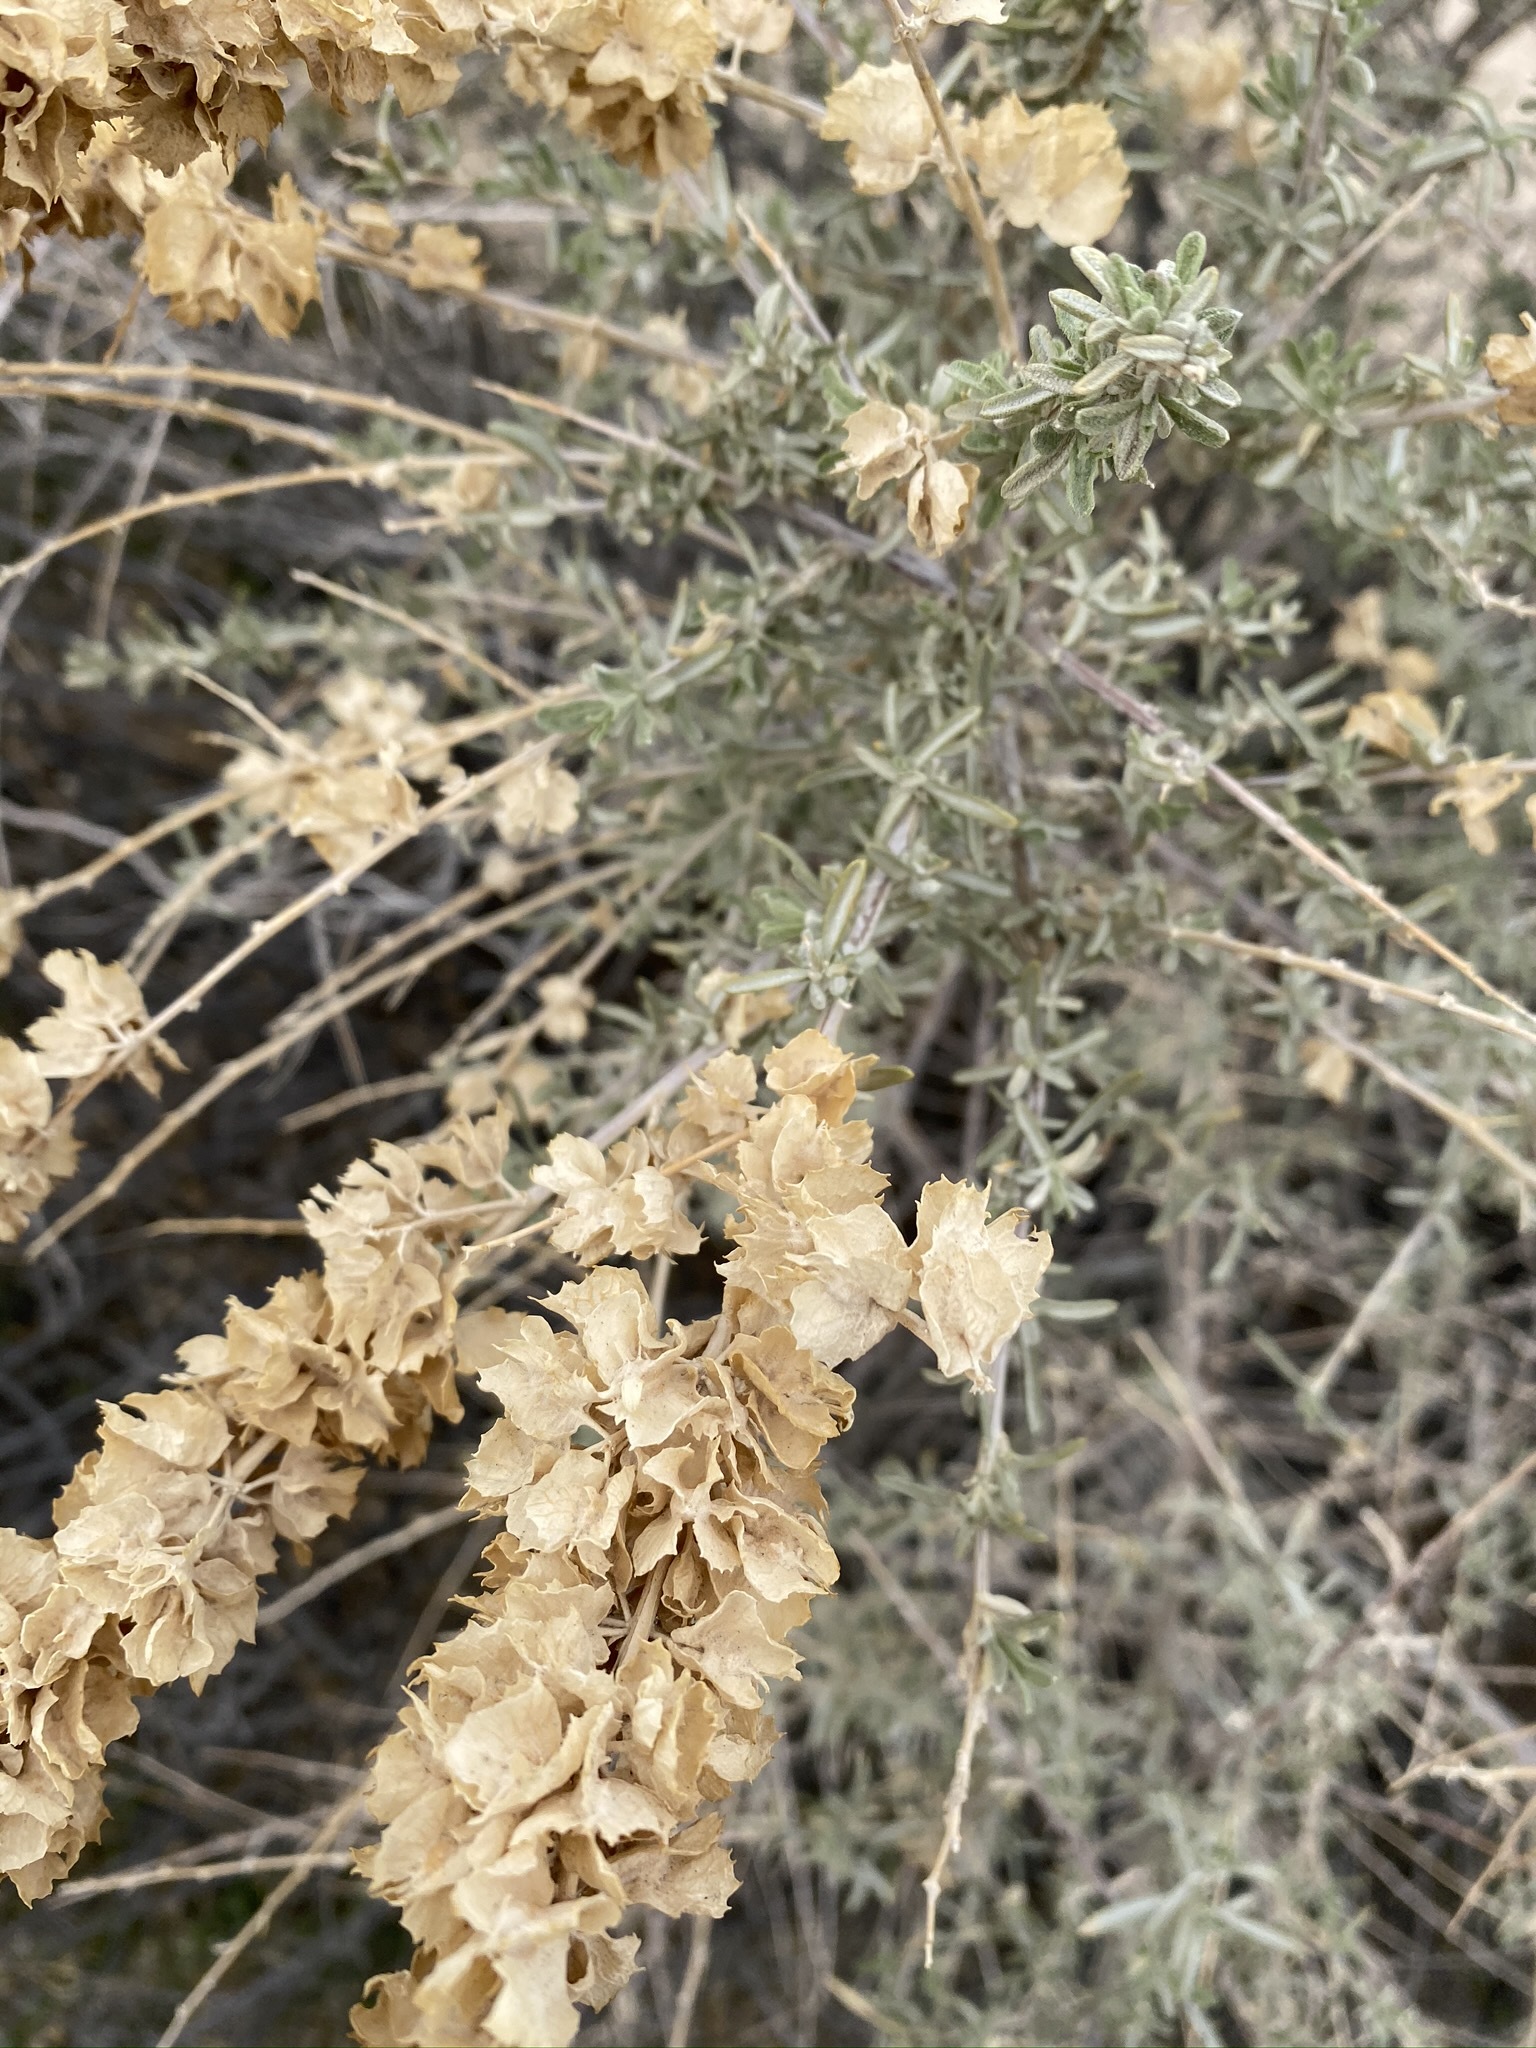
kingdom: Plantae
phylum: Tracheophyta
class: Magnoliopsida
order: Caryophyllales
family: Amaranthaceae
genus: Atriplex
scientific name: Atriplex canescens
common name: Four-wing saltbush
